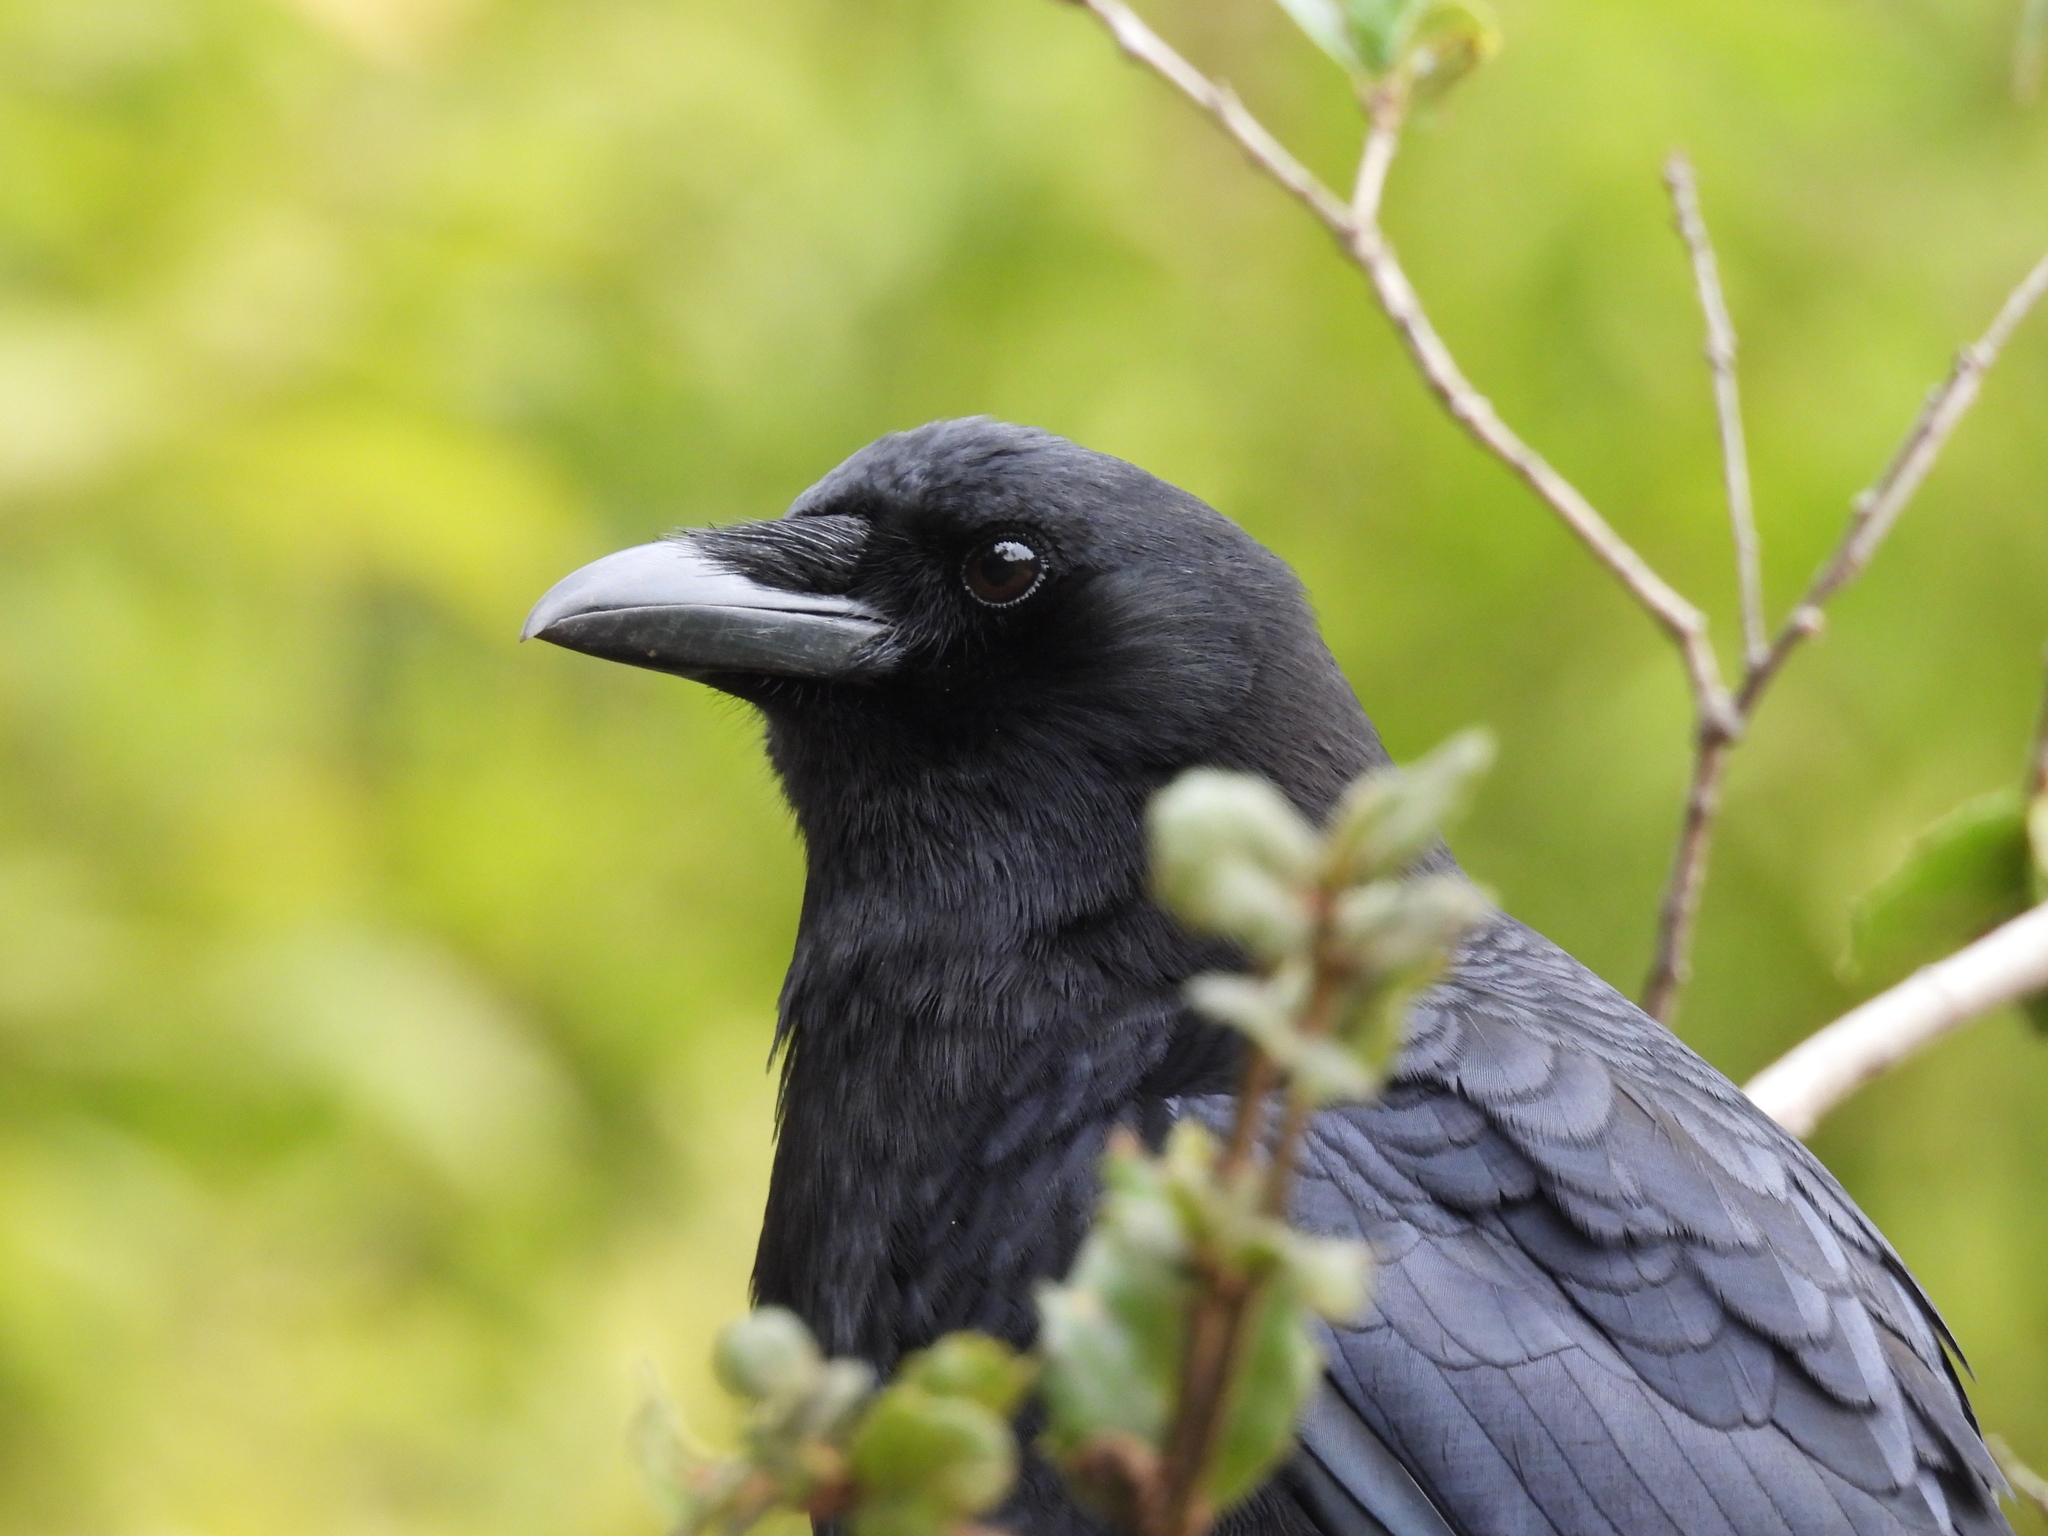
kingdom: Animalia
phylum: Chordata
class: Aves
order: Passeriformes
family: Corvidae
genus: Corvus
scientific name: Corvus brachyrhynchos
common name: American crow
